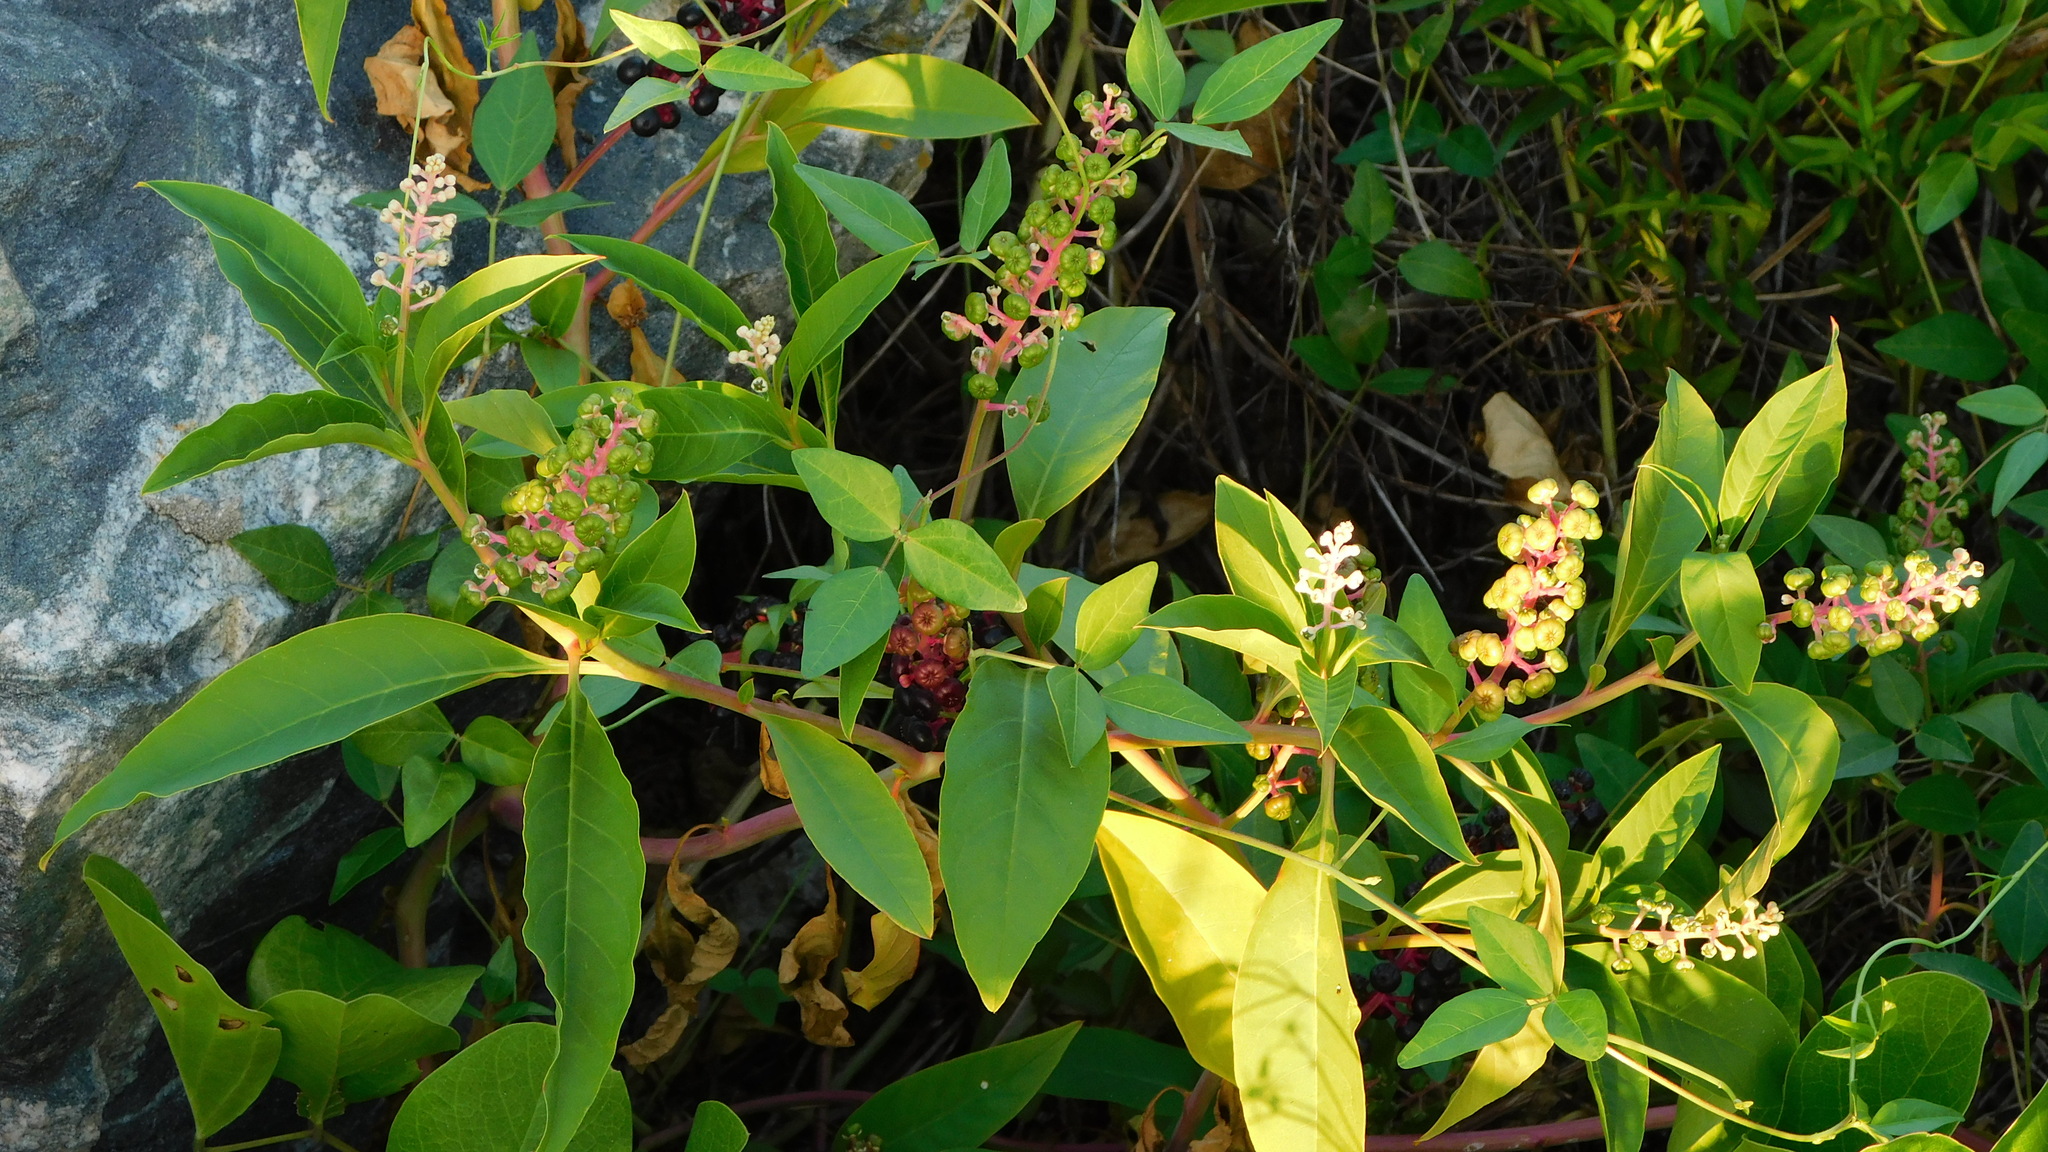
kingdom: Plantae
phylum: Tracheophyta
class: Magnoliopsida
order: Caryophyllales
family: Phytolaccaceae
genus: Phytolacca
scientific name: Phytolacca americana
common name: American pokeweed
